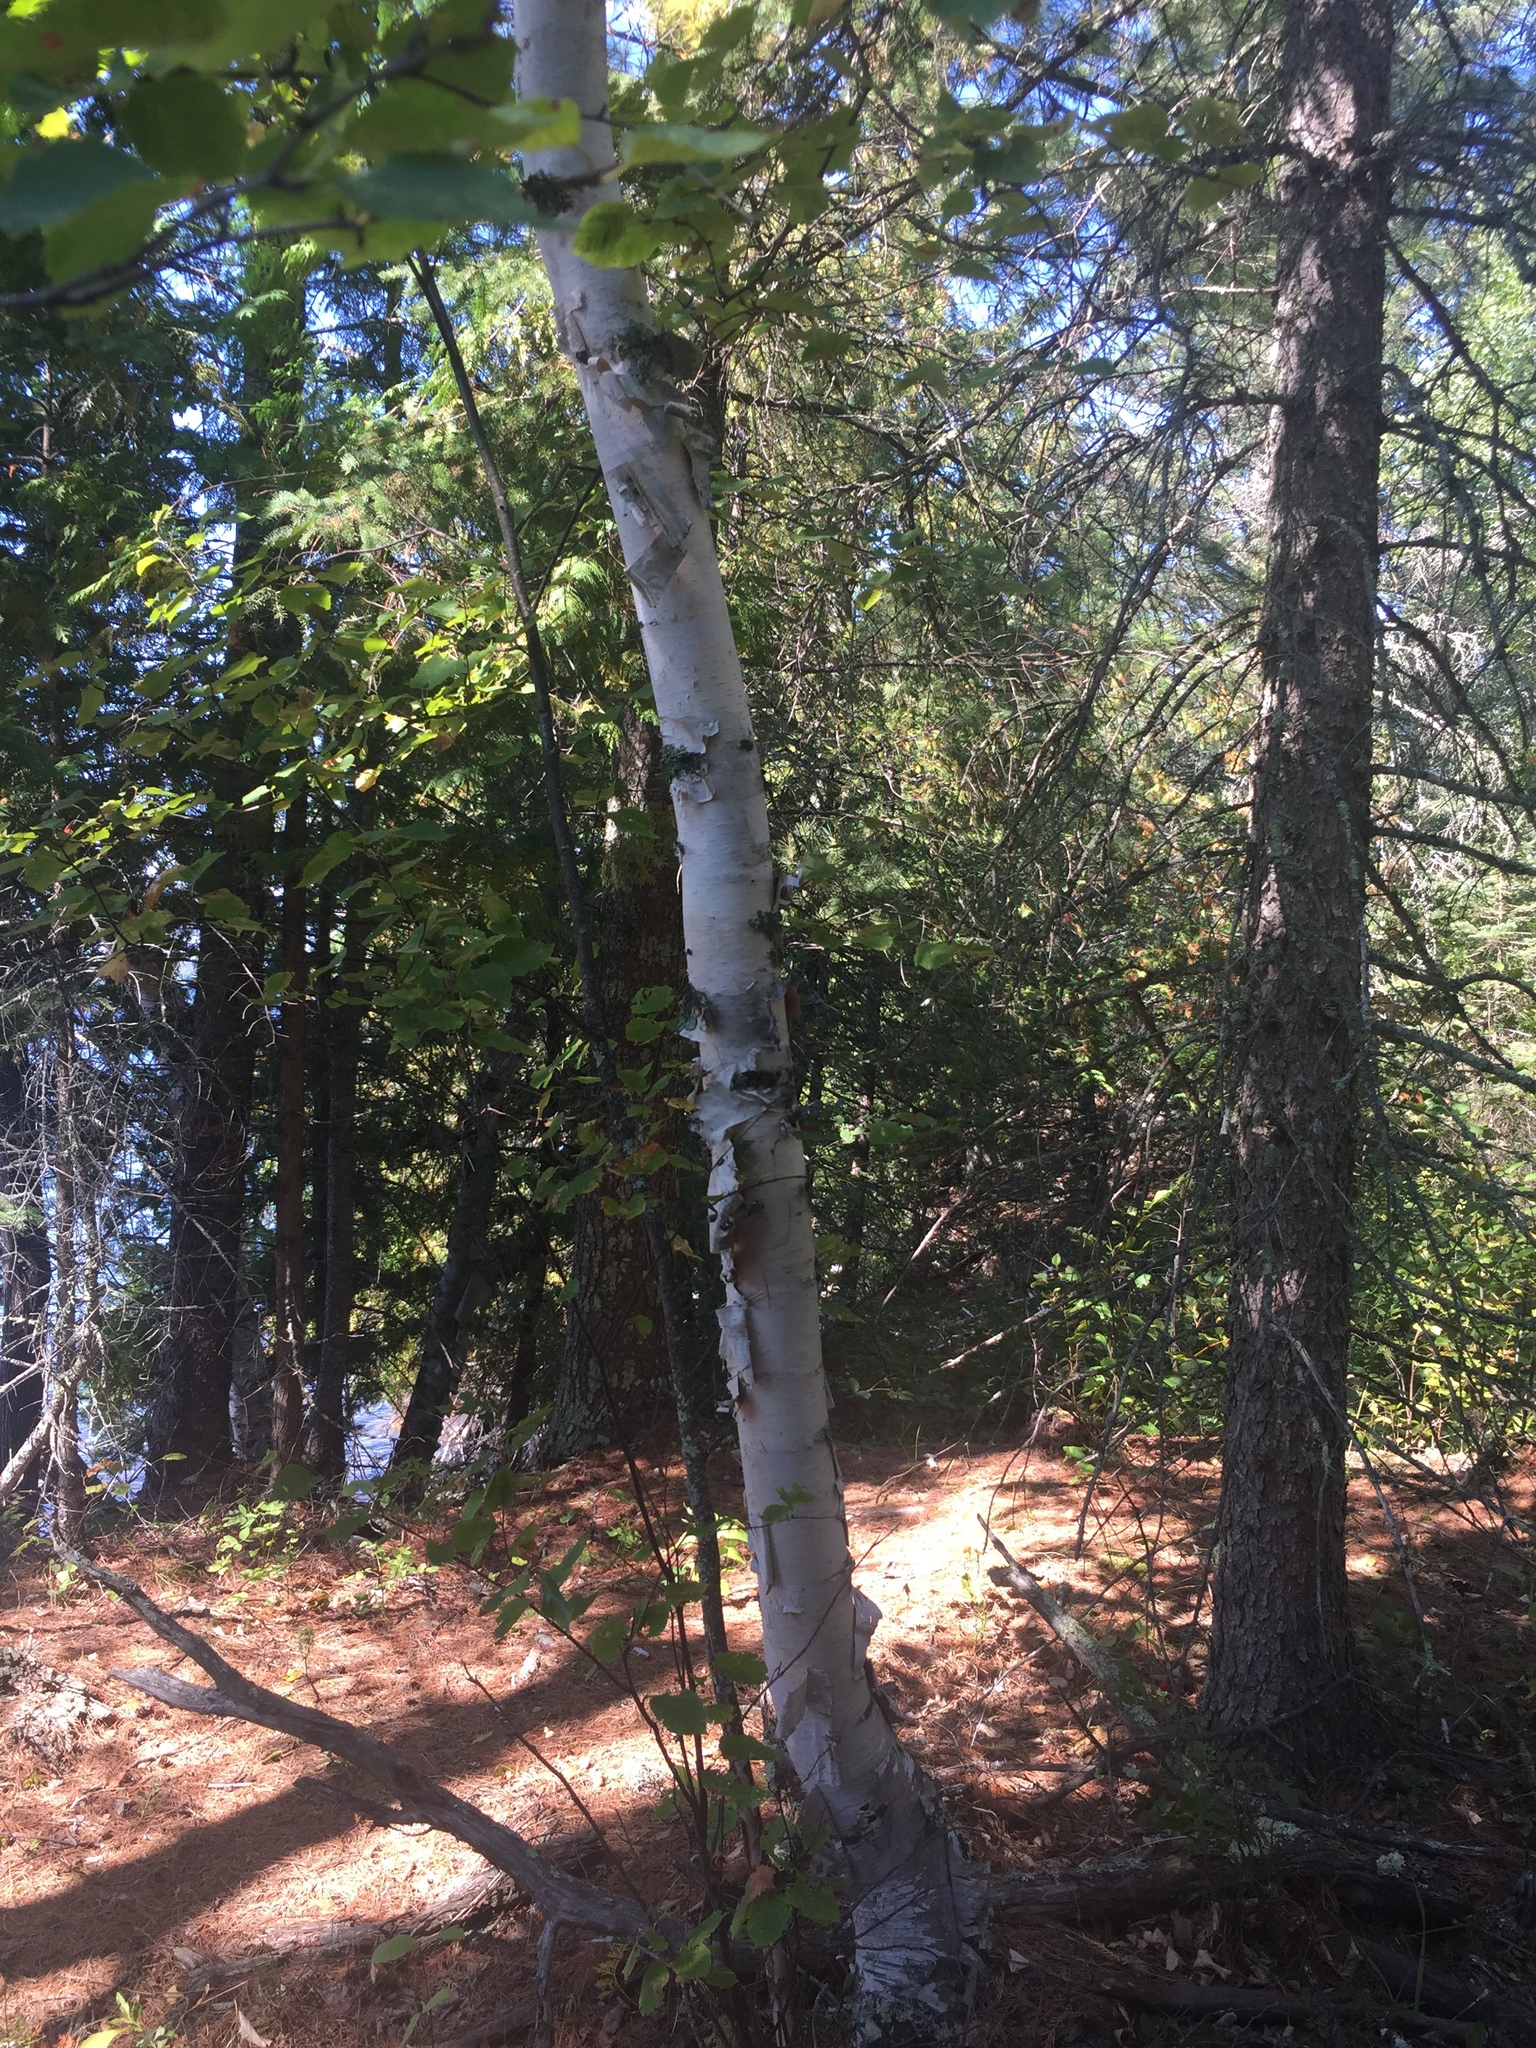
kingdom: Plantae
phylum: Tracheophyta
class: Magnoliopsida
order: Fagales
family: Betulaceae
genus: Betula
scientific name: Betula papyrifera
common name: Paper birch
